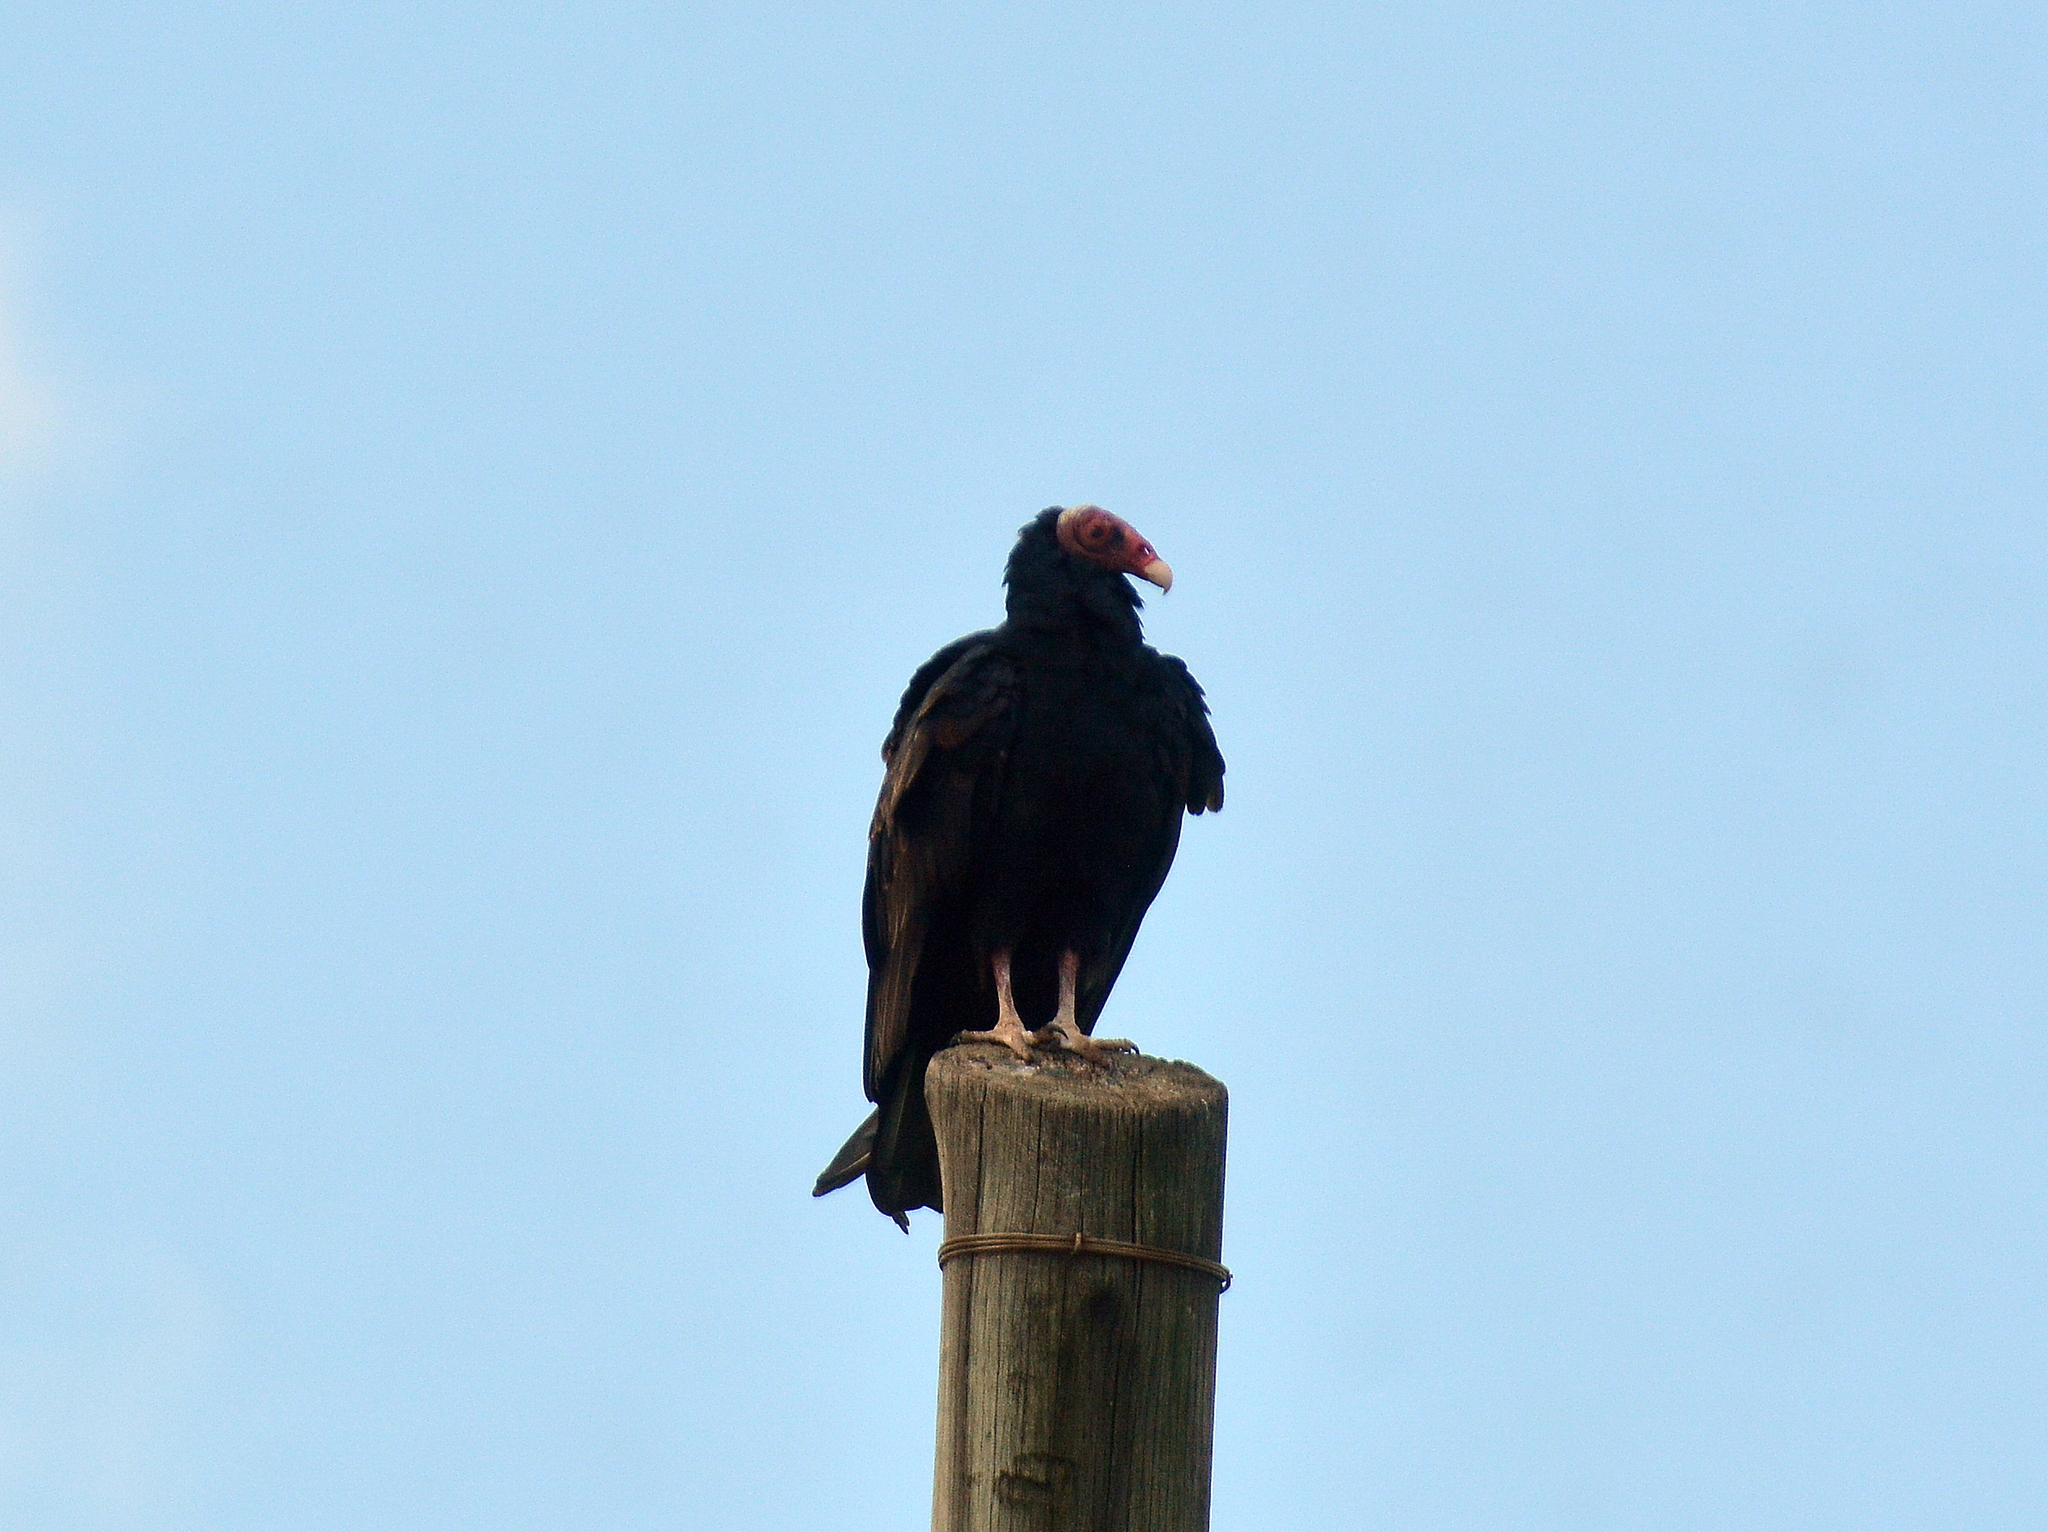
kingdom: Animalia
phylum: Chordata
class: Aves
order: Accipitriformes
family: Cathartidae
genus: Cathartes
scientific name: Cathartes aura
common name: Turkey vulture
